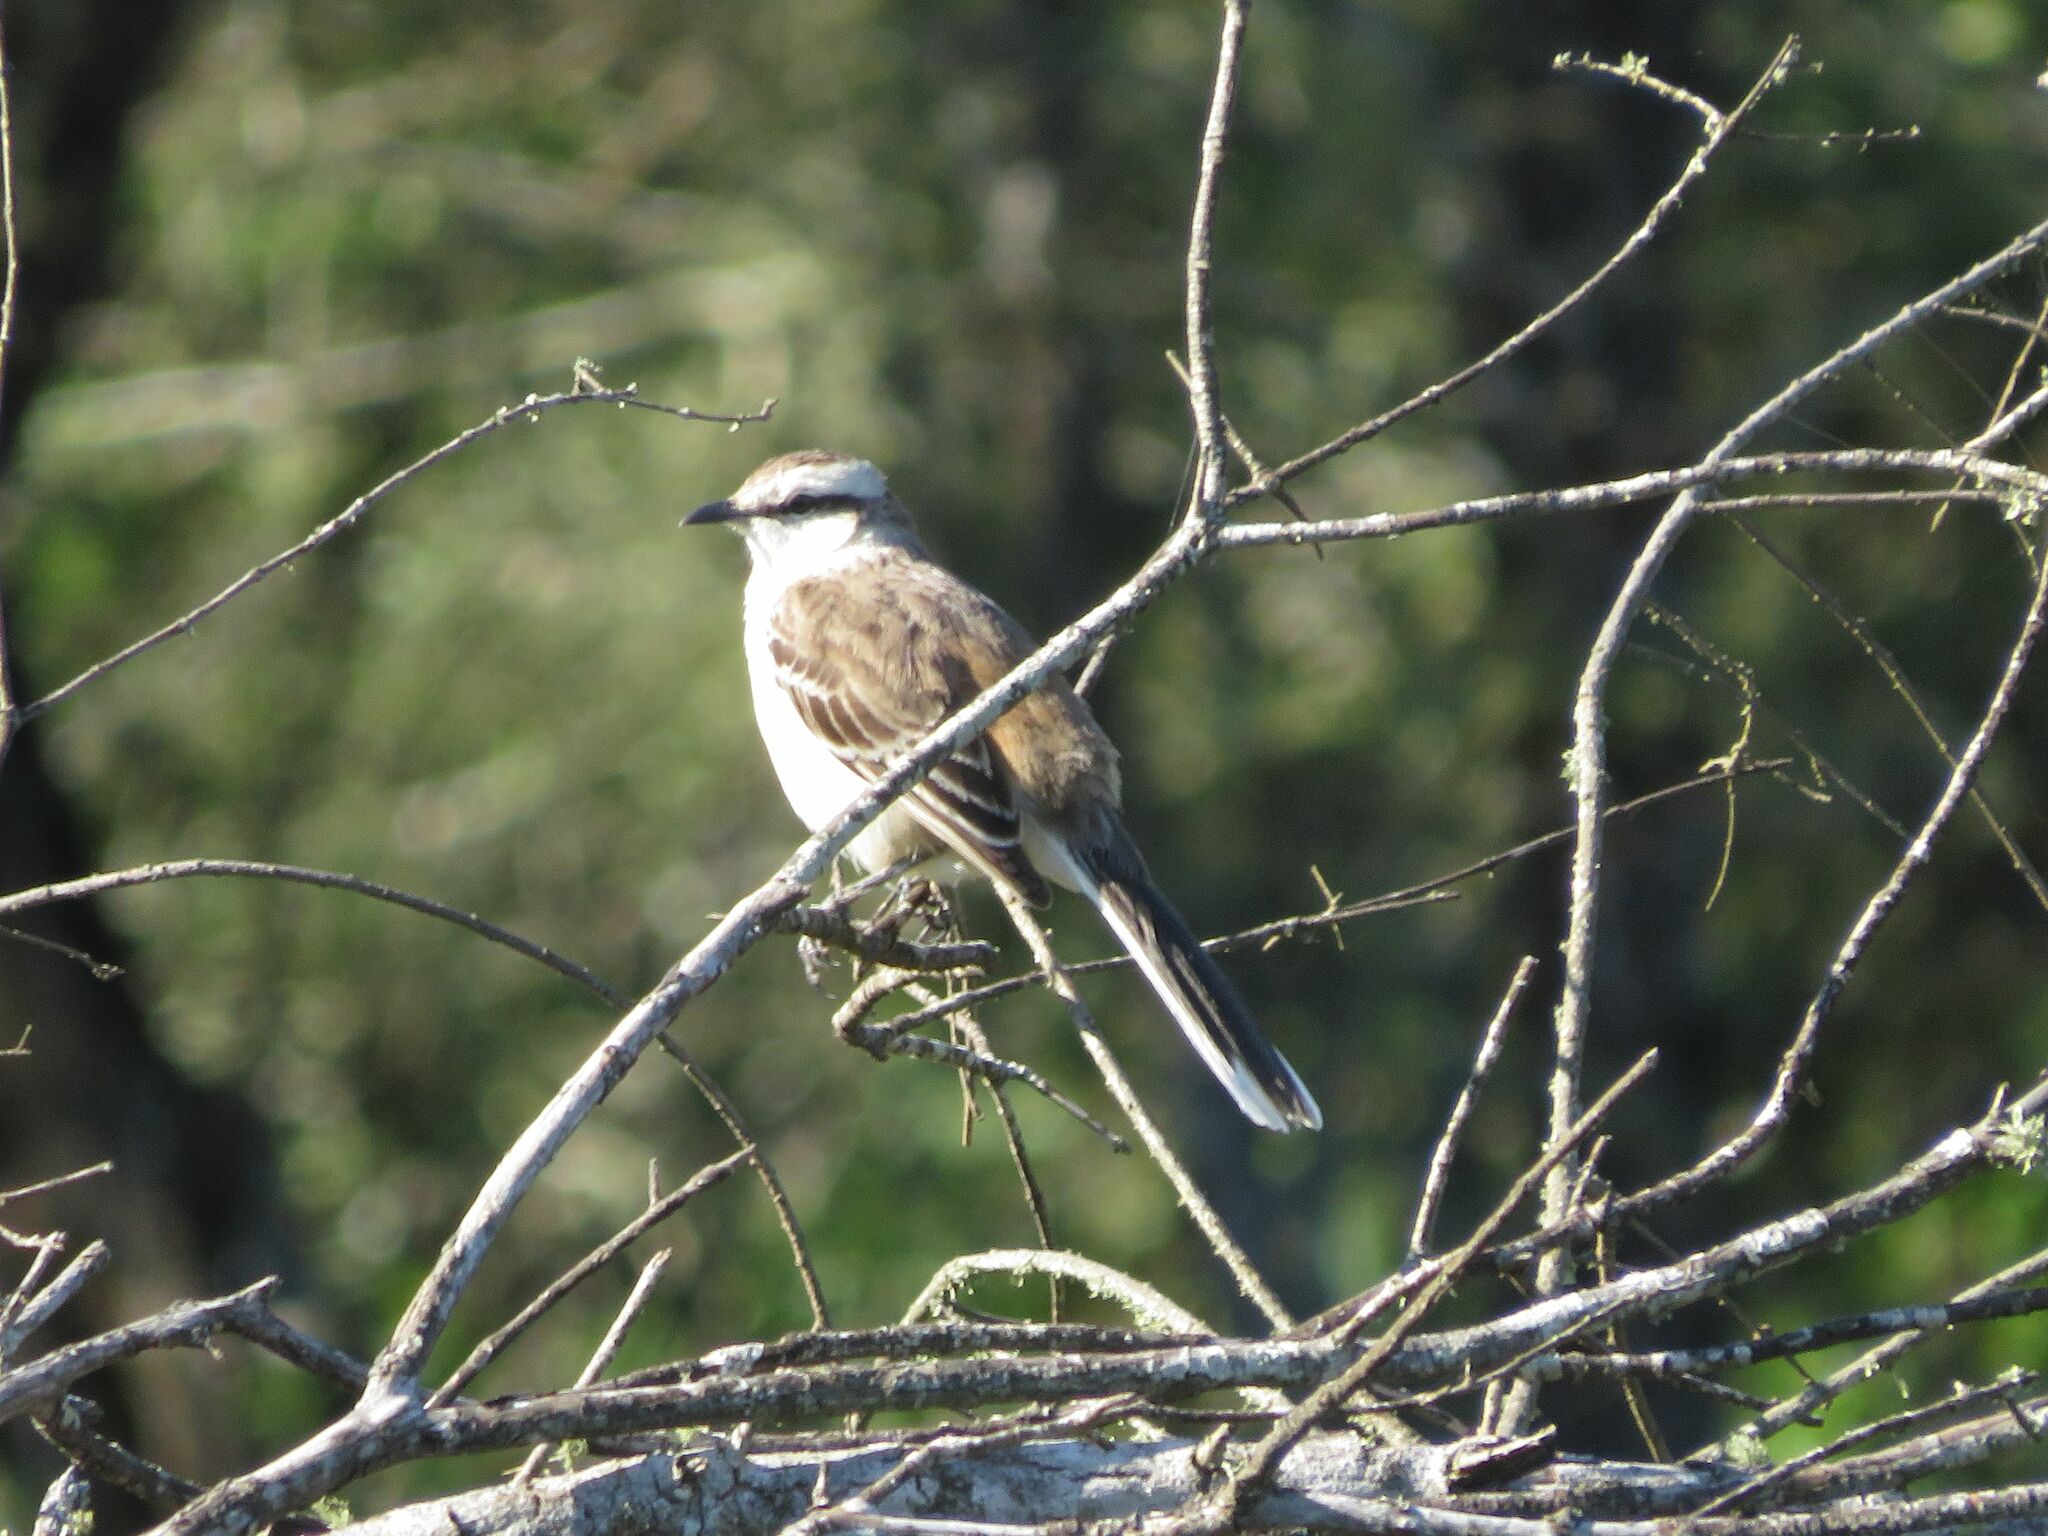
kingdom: Animalia
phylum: Chordata
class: Aves
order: Passeriformes
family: Mimidae
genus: Mimus
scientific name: Mimus saturninus
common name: Chalk-browed mockingbird
